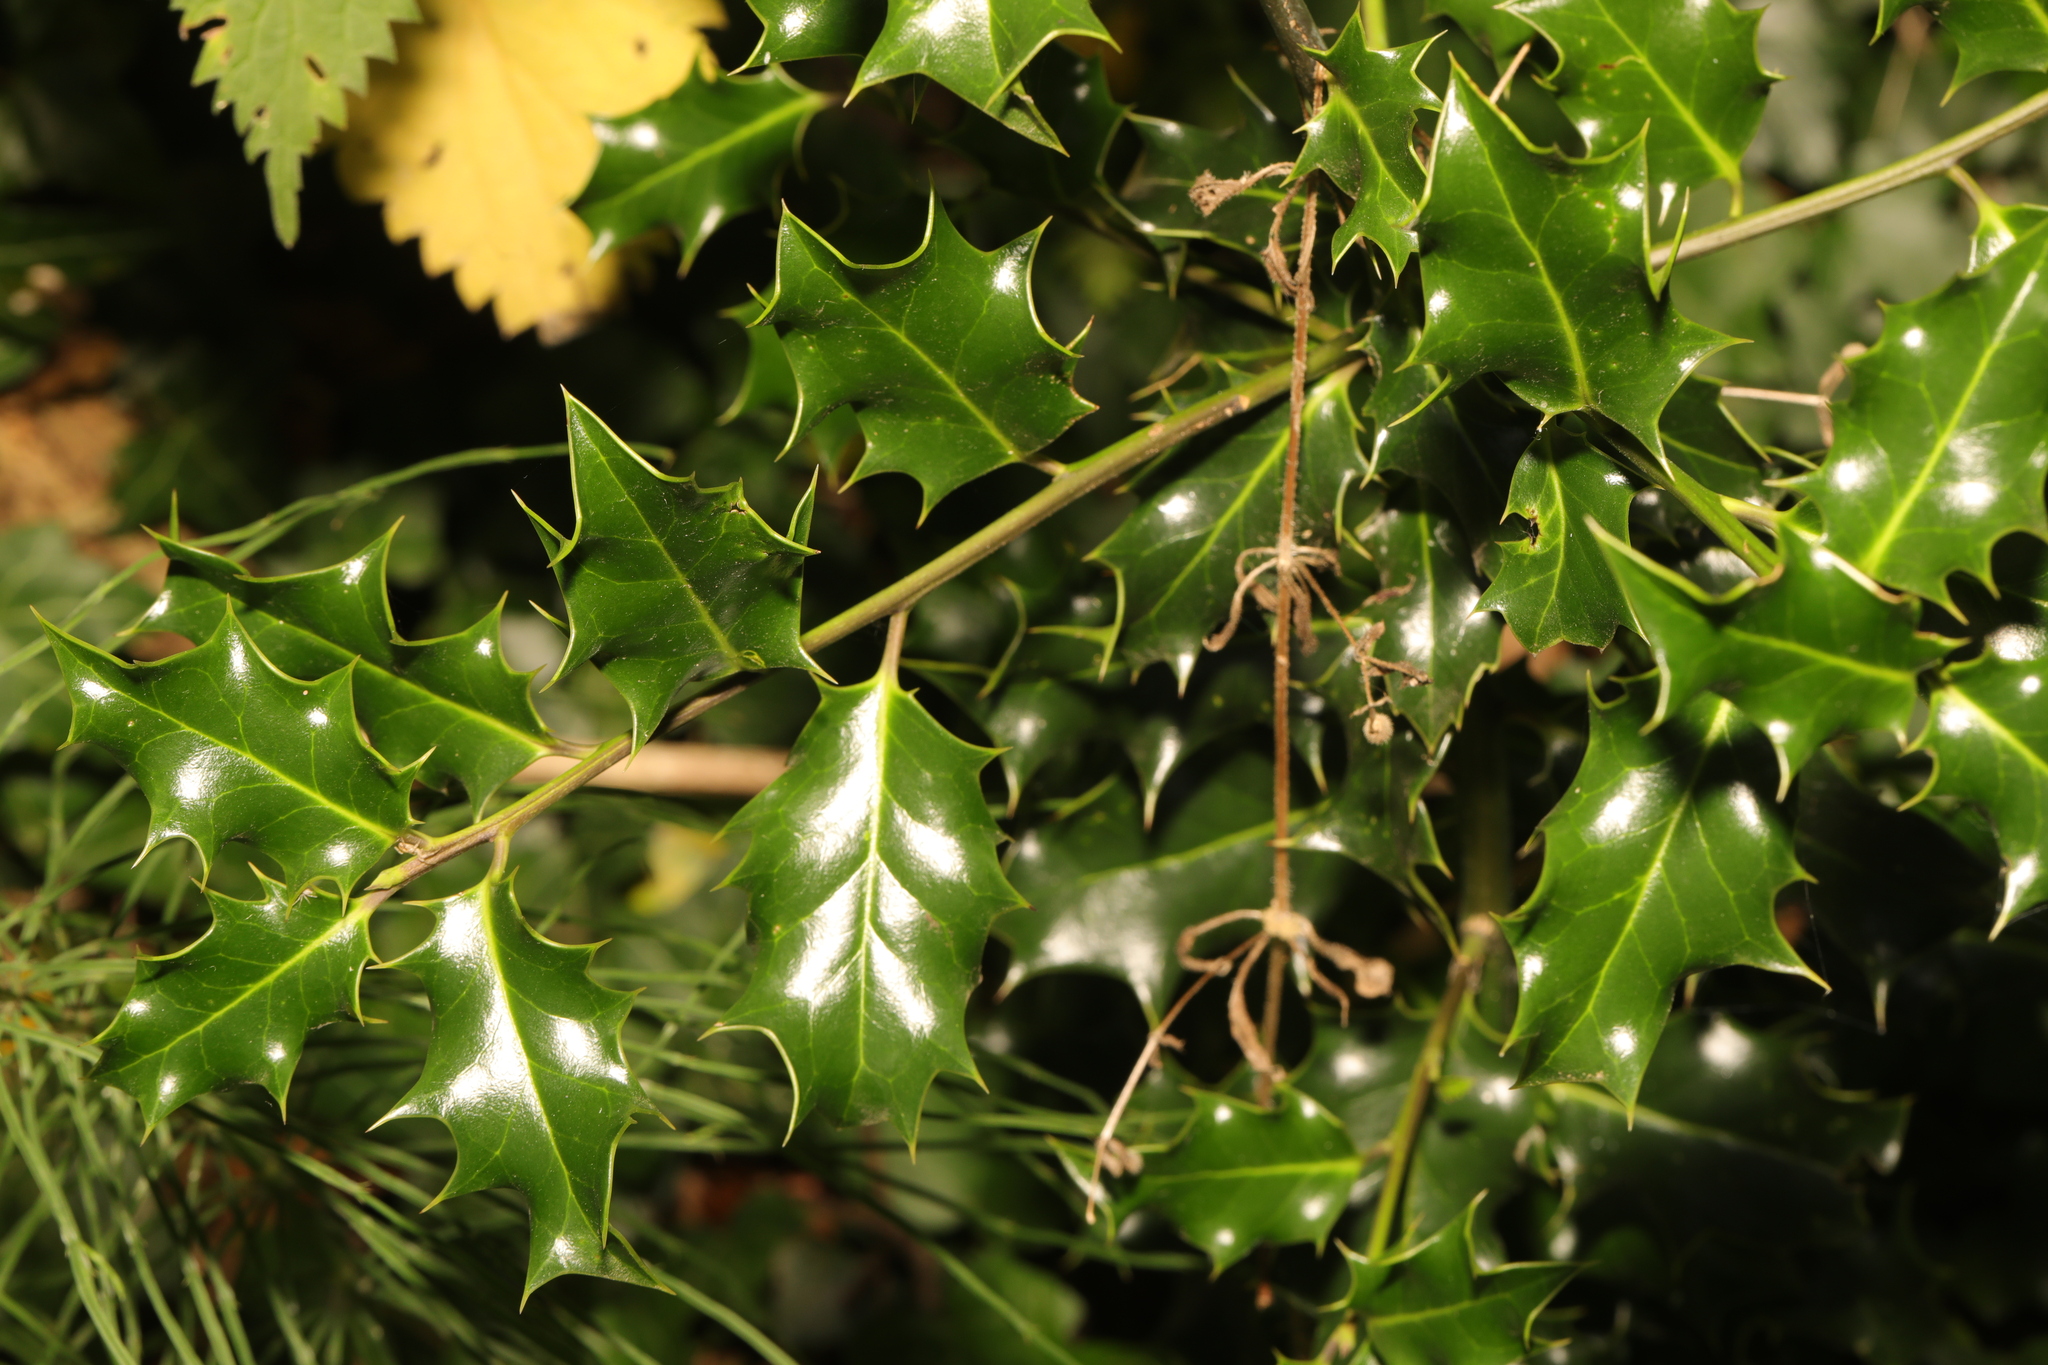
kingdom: Plantae
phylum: Tracheophyta
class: Magnoliopsida
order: Aquifoliales
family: Aquifoliaceae
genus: Ilex
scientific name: Ilex aquifolium
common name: English holly
